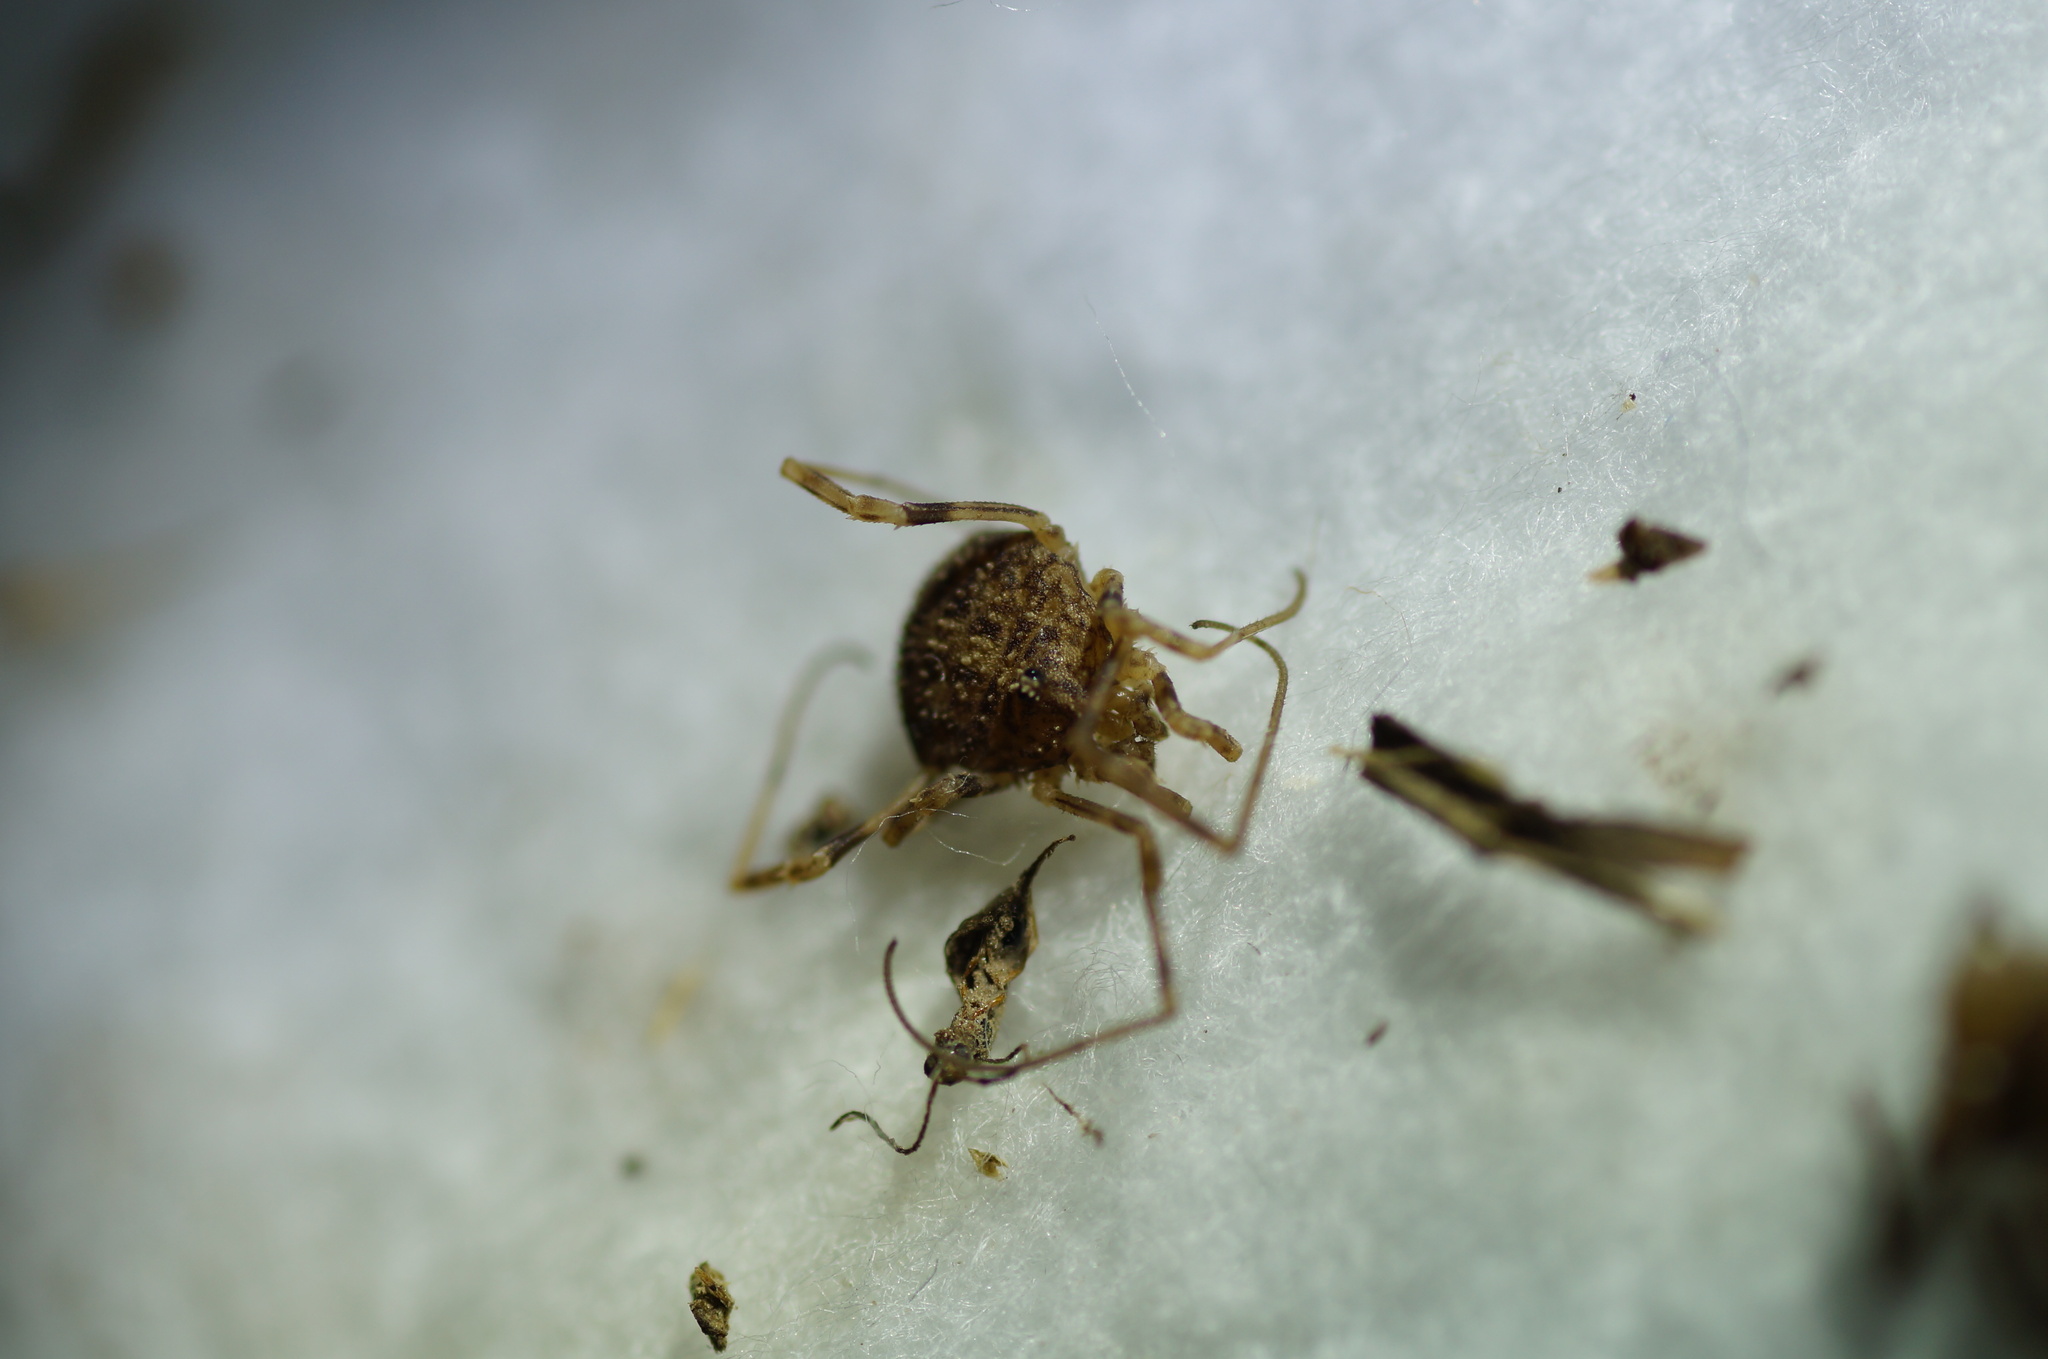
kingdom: Animalia
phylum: Arthropoda
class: Arachnida
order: Opiliones
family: Phalangiidae
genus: Odiellus
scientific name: Odiellus lendlii
